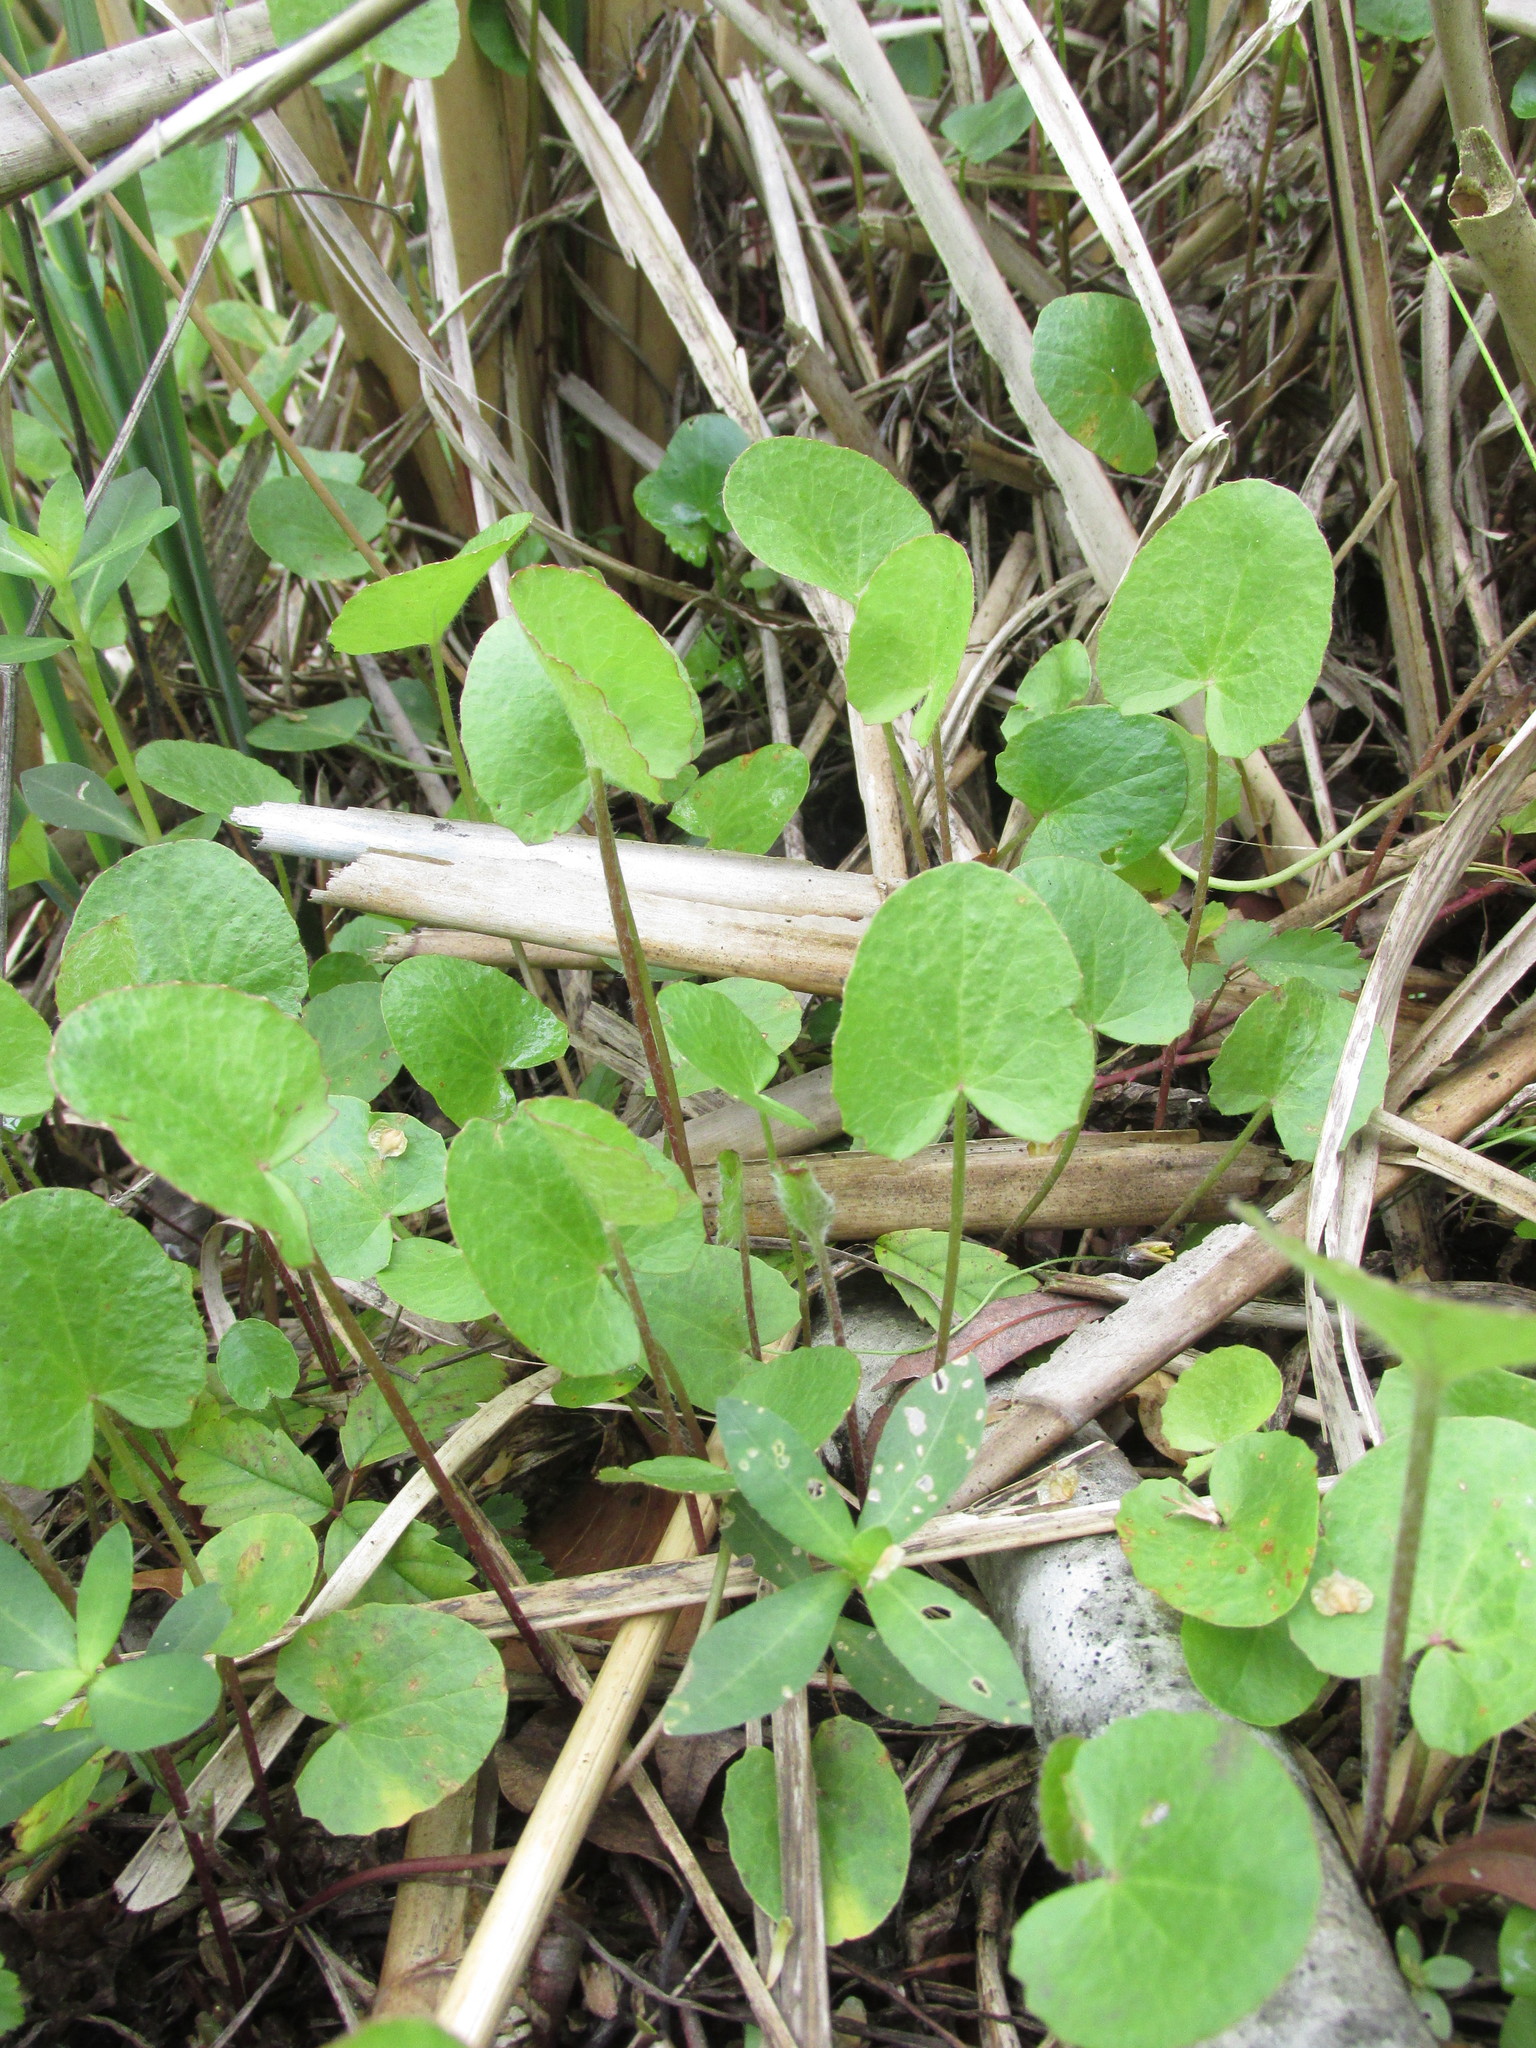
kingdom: Plantae
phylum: Tracheophyta
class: Magnoliopsida
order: Apiales
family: Apiaceae
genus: Centella
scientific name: Centella erecta
